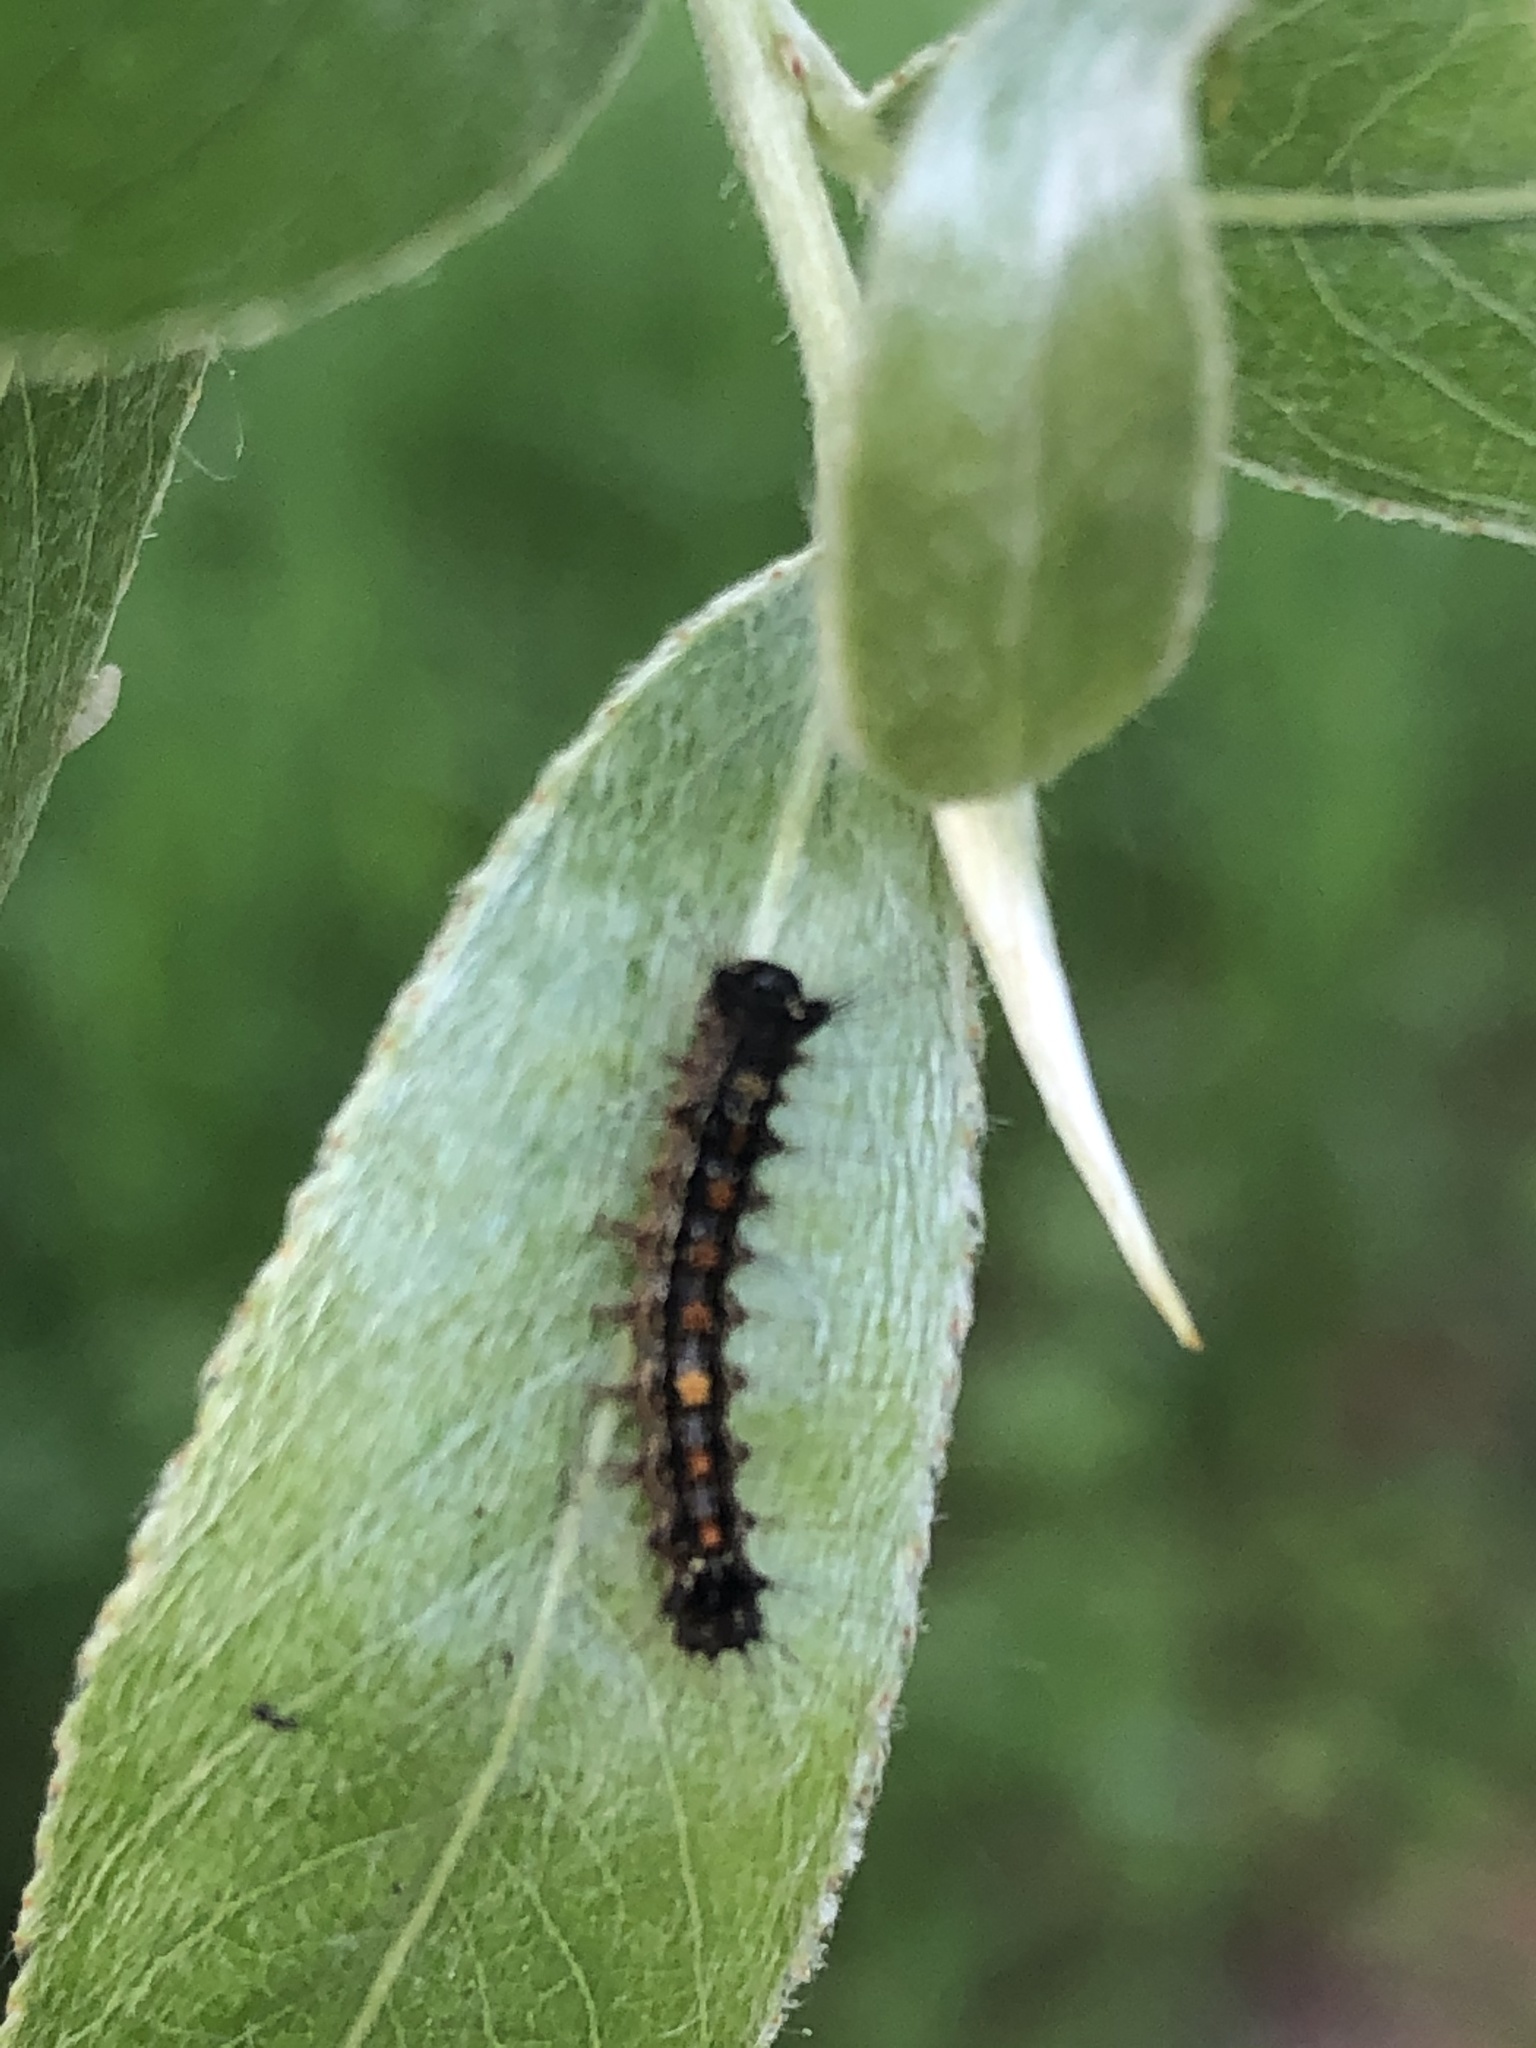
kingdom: Animalia
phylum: Arthropoda
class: Insecta
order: Lepidoptera
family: Erebidae
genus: Lymantria
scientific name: Lymantria dispar
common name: Gypsy moth
